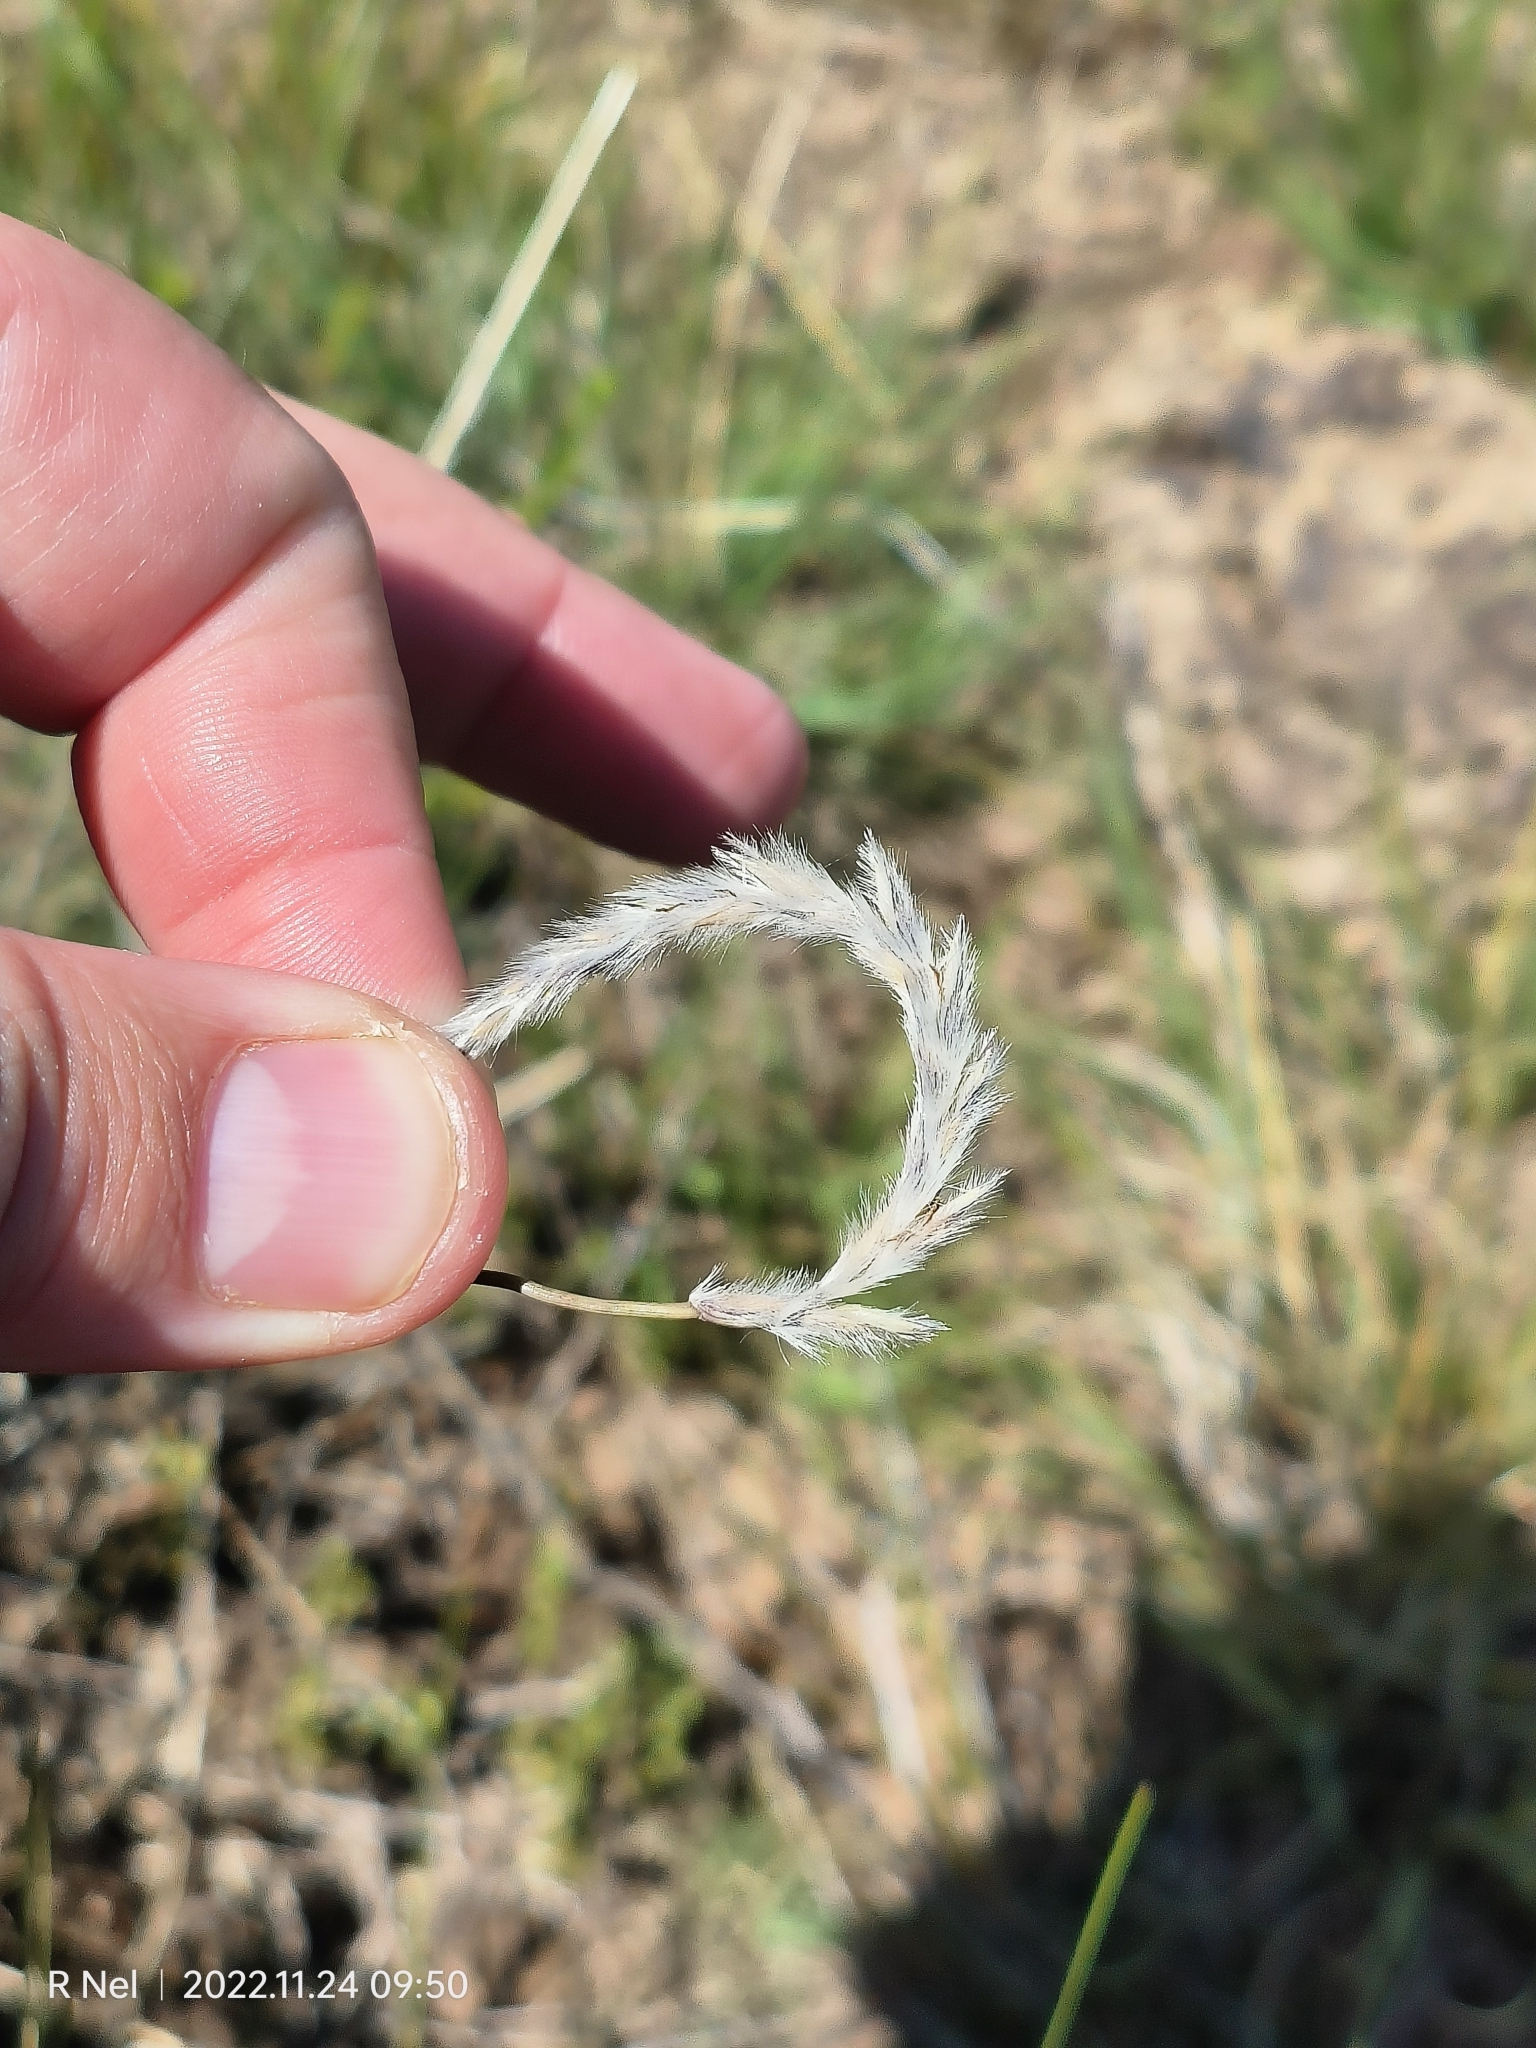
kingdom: Plantae
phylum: Tracheophyta
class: Liliopsida
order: Poales
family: Poaceae
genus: Elionurus
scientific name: Elionurus muticus
